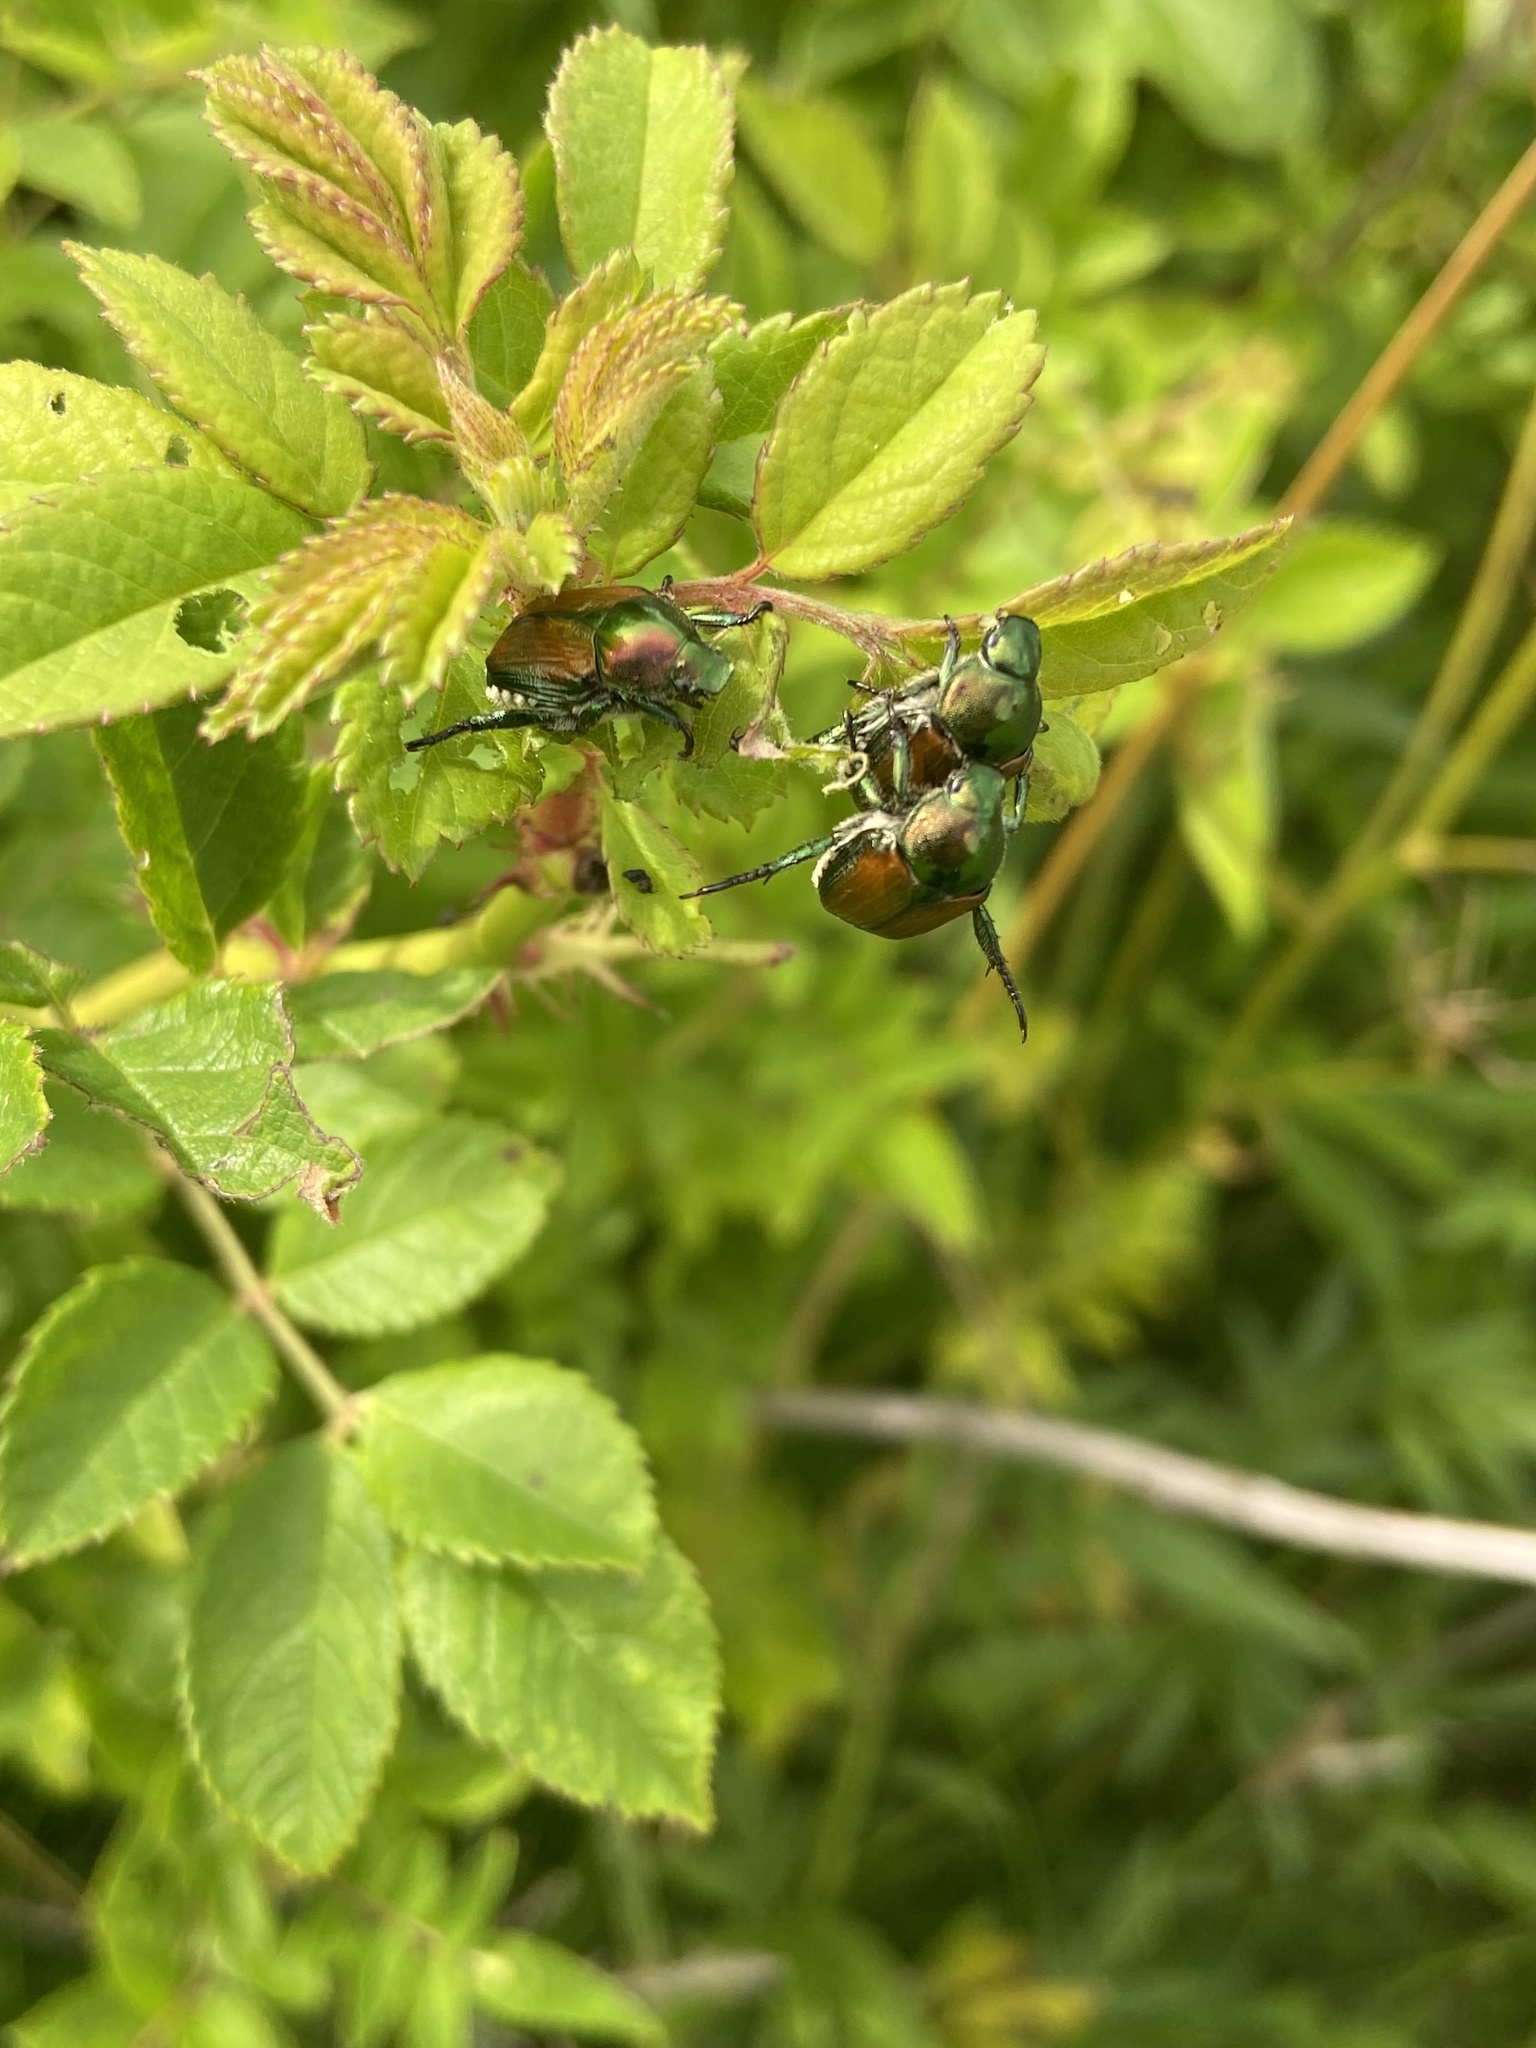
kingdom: Animalia
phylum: Arthropoda
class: Insecta
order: Coleoptera
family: Scarabaeidae
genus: Popillia
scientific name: Popillia japonica
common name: Japanese beetle
